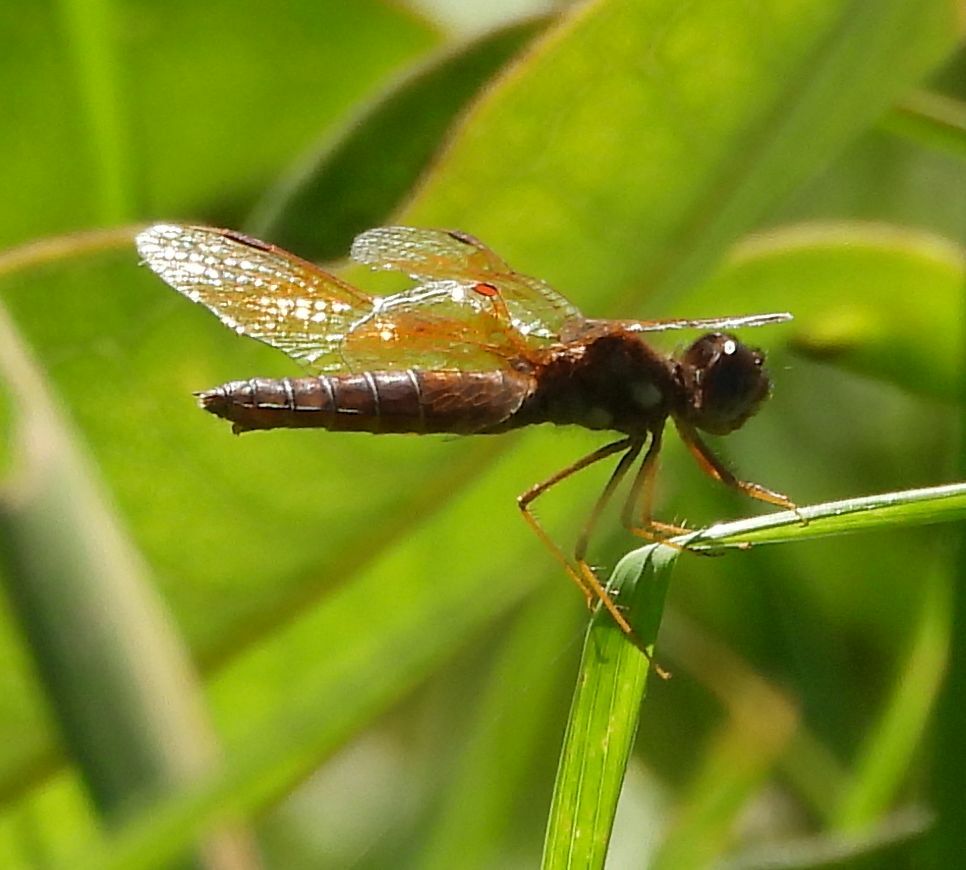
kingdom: Animalia
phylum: Arthropoda
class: Insecta
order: Odonata
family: Libellulidae
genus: Perithemis
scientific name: Perithemis tenera
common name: Eastern amberwing
